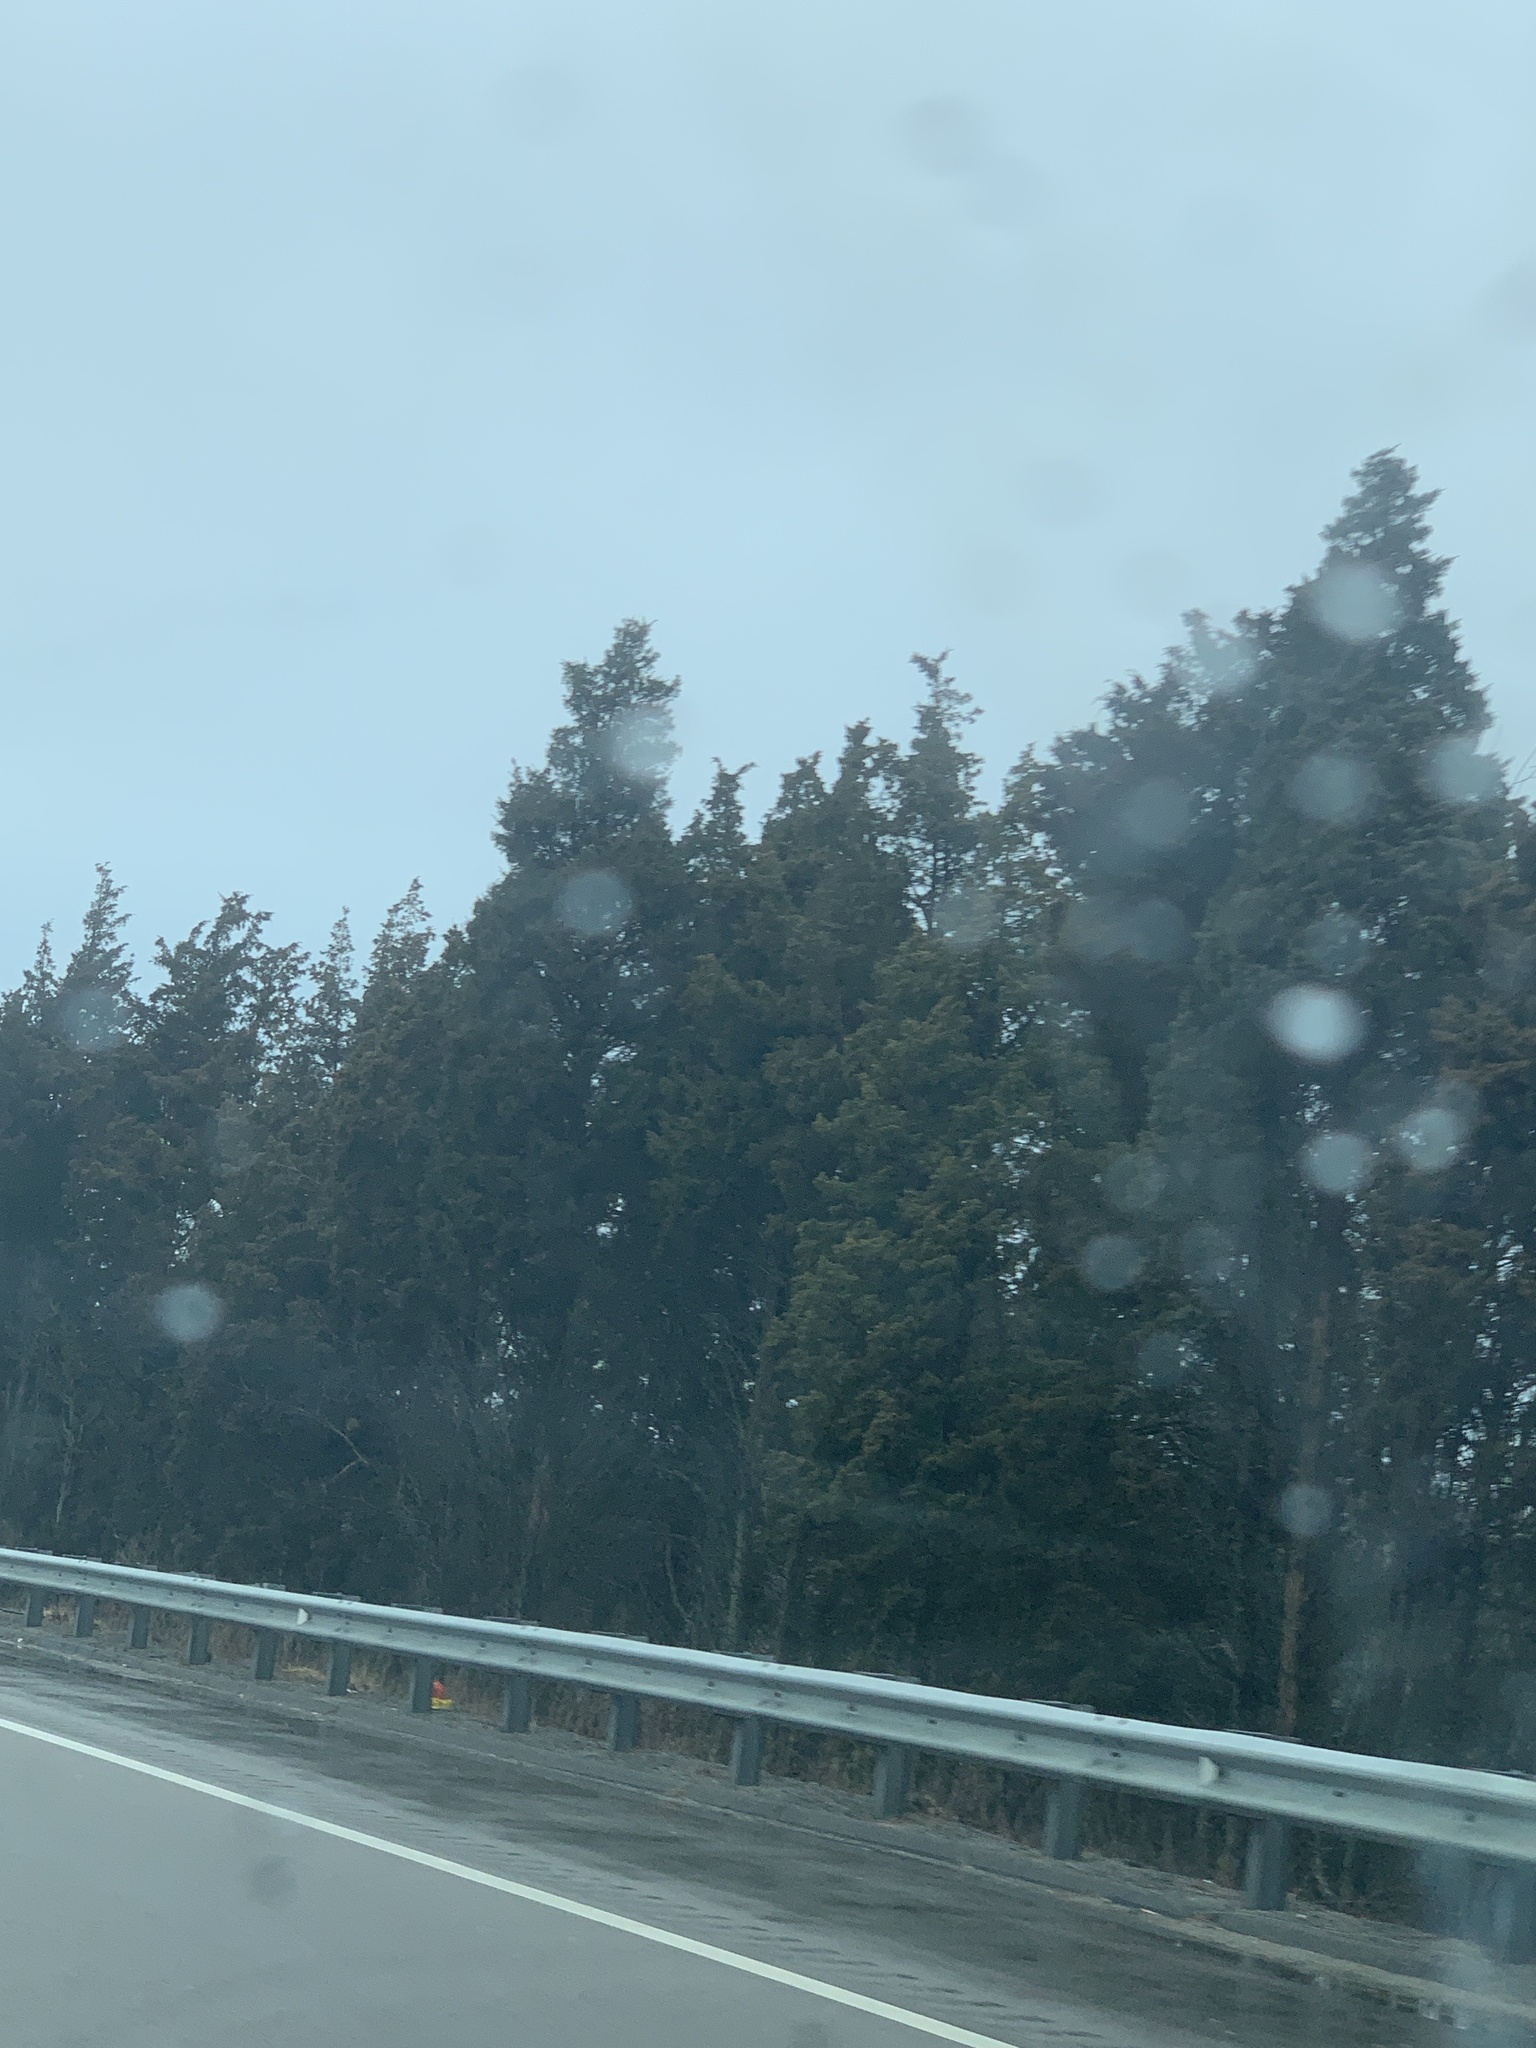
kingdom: Plantae
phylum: Tracheophyta
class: Pinopsida
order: Pinales
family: Cupressaceae
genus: Juniperus
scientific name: Juniperus virginiana
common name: Red juniper
